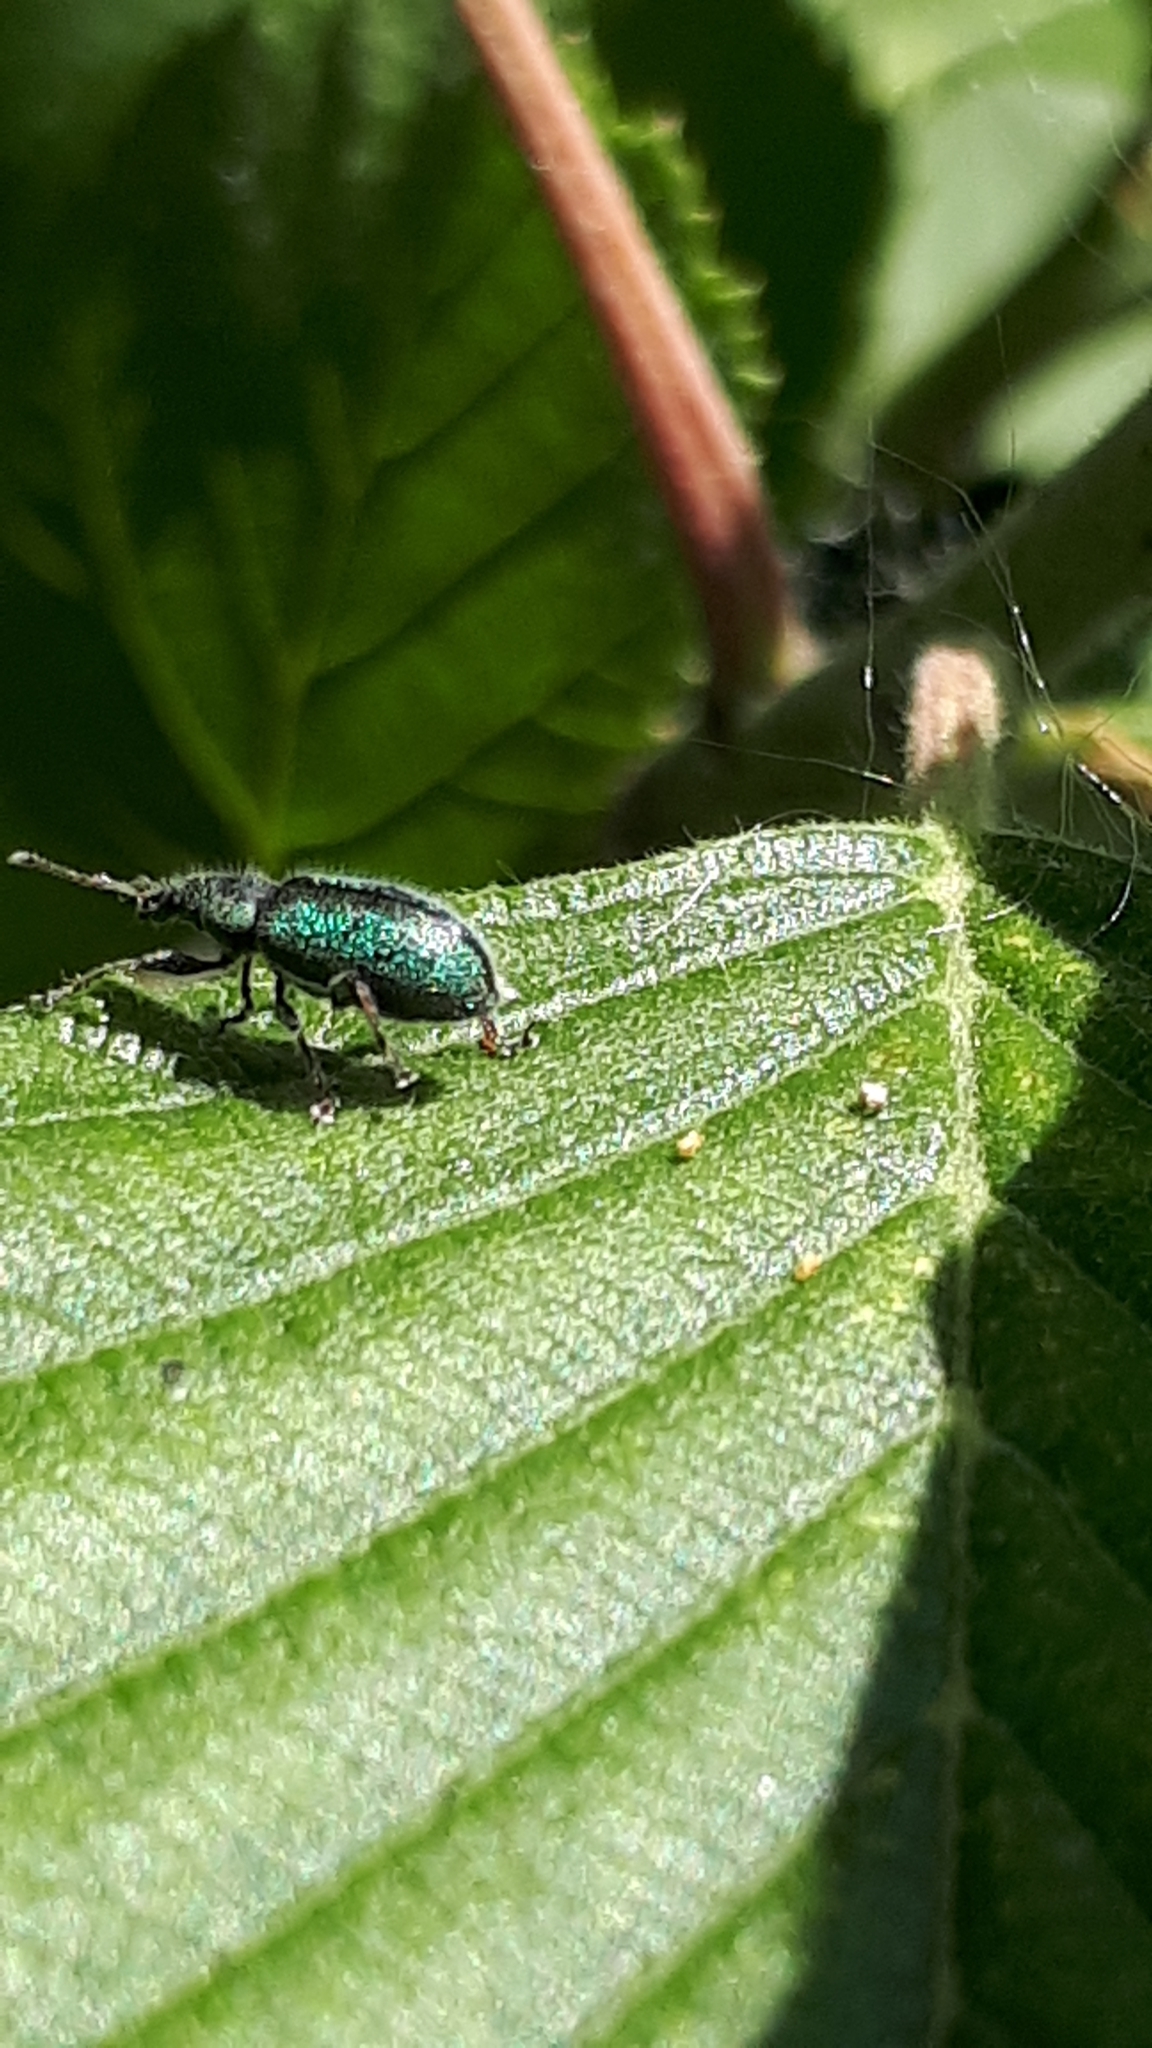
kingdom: Animalia
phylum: Arthropoda
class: Insecta
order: Coleoptera
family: Curculionidae
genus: Phyllobius
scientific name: Phyllobius betulinus
